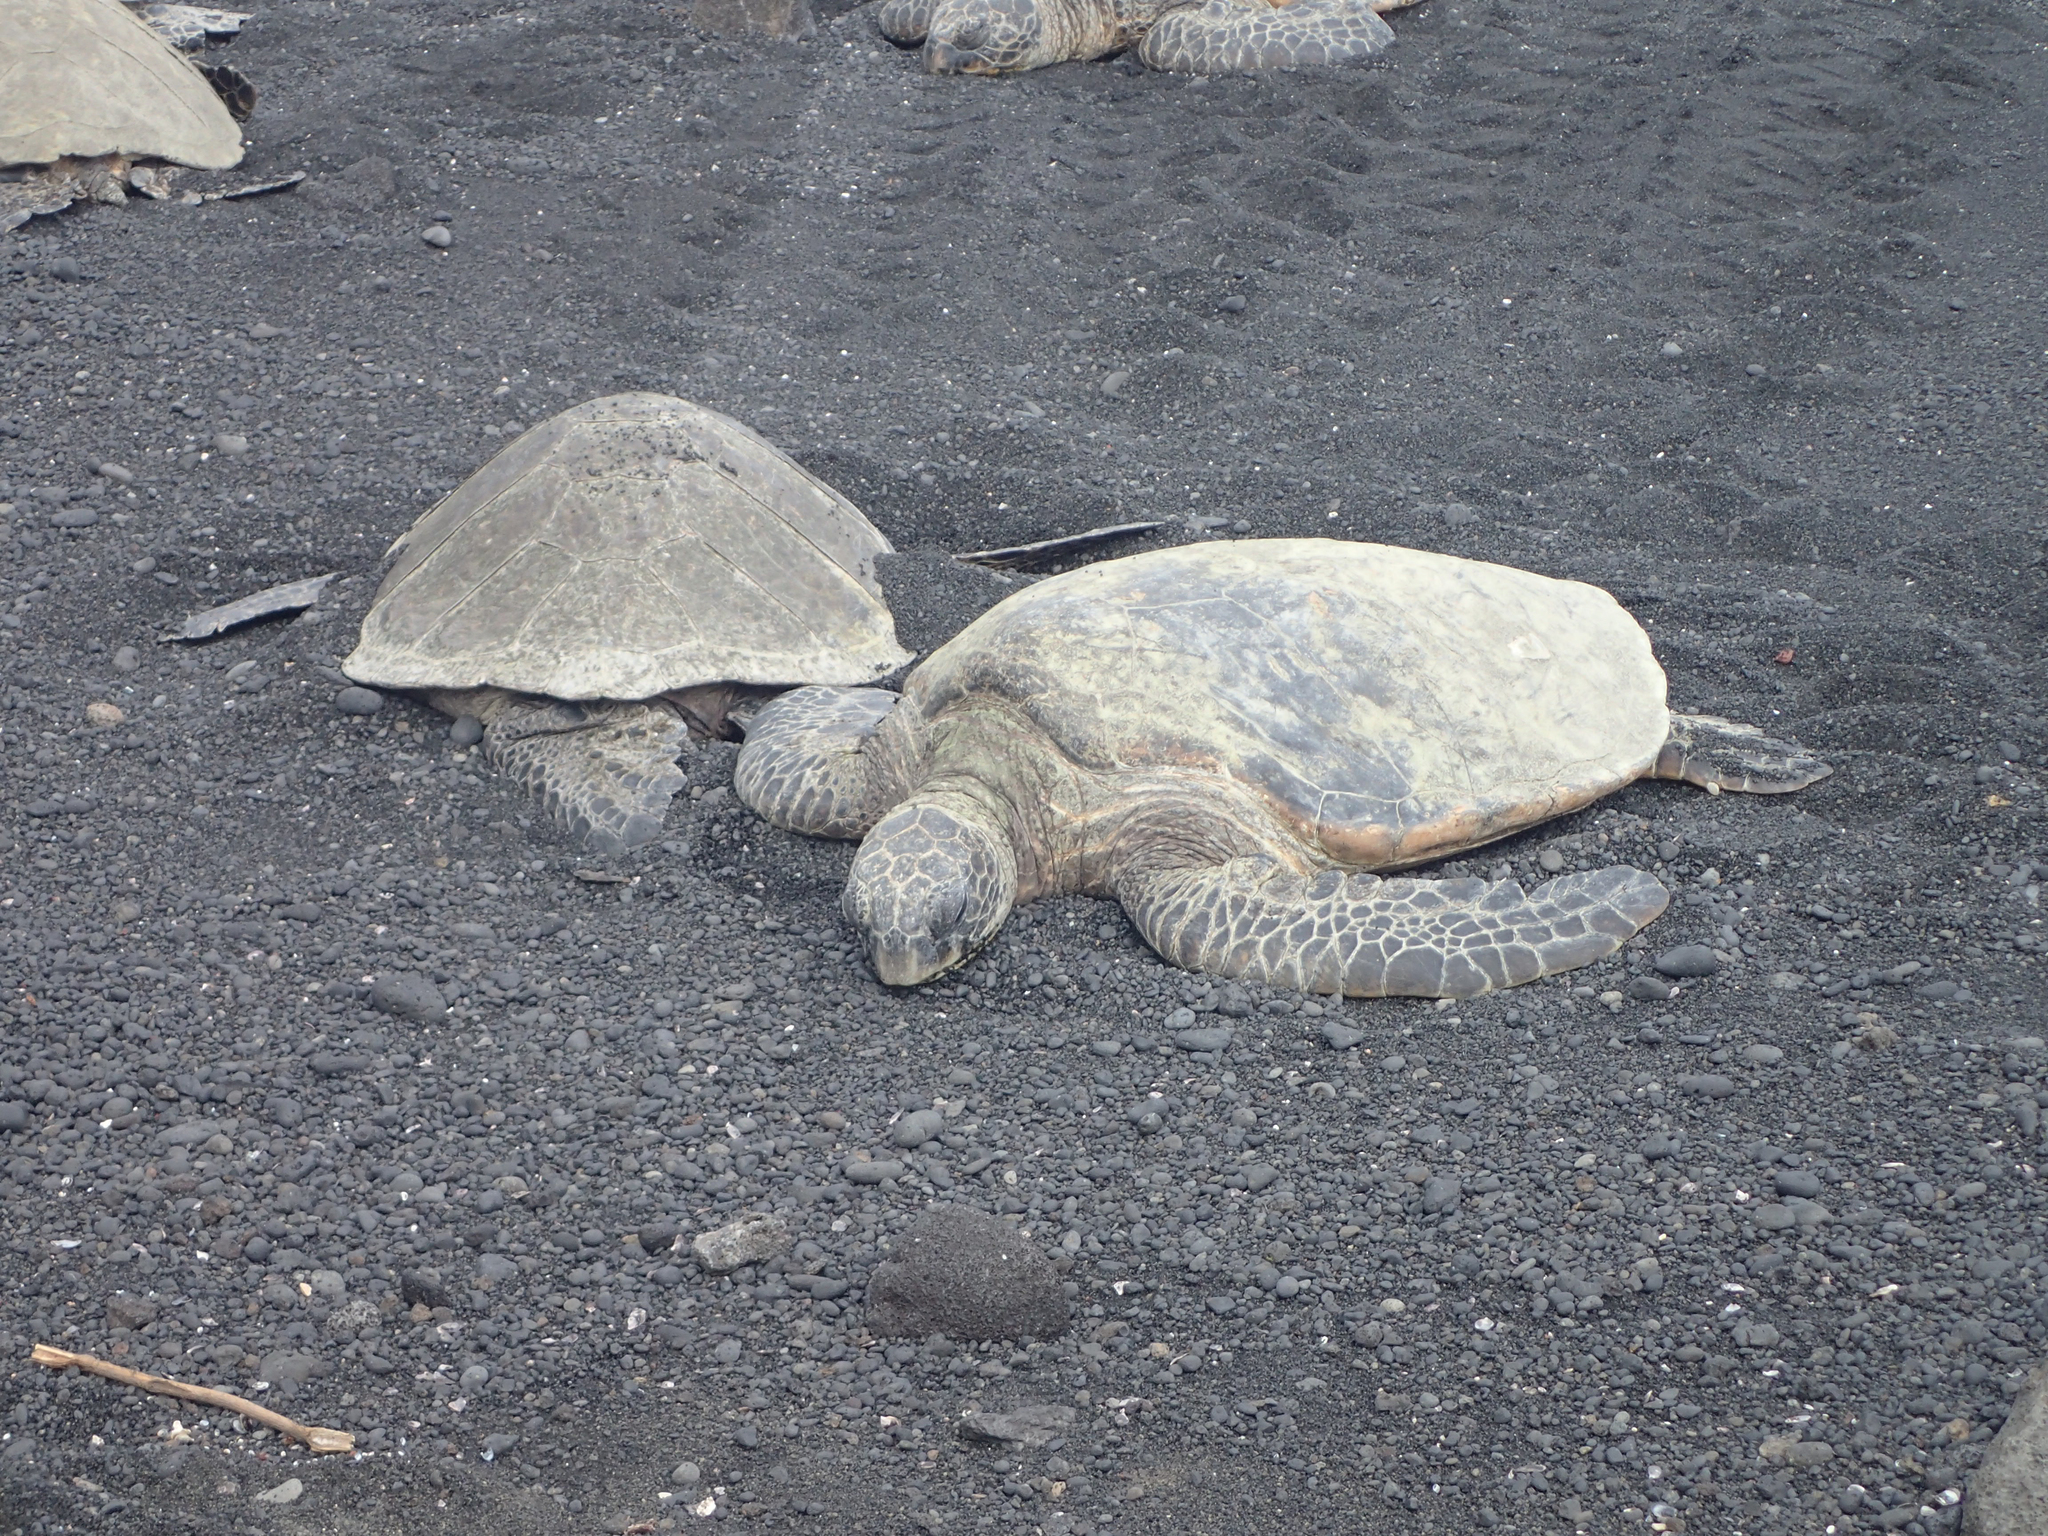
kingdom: Animalia
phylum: Chordata
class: Testudines
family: Cheloniidae
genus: Chelonia
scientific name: Chelonia mydas
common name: Green turtle
